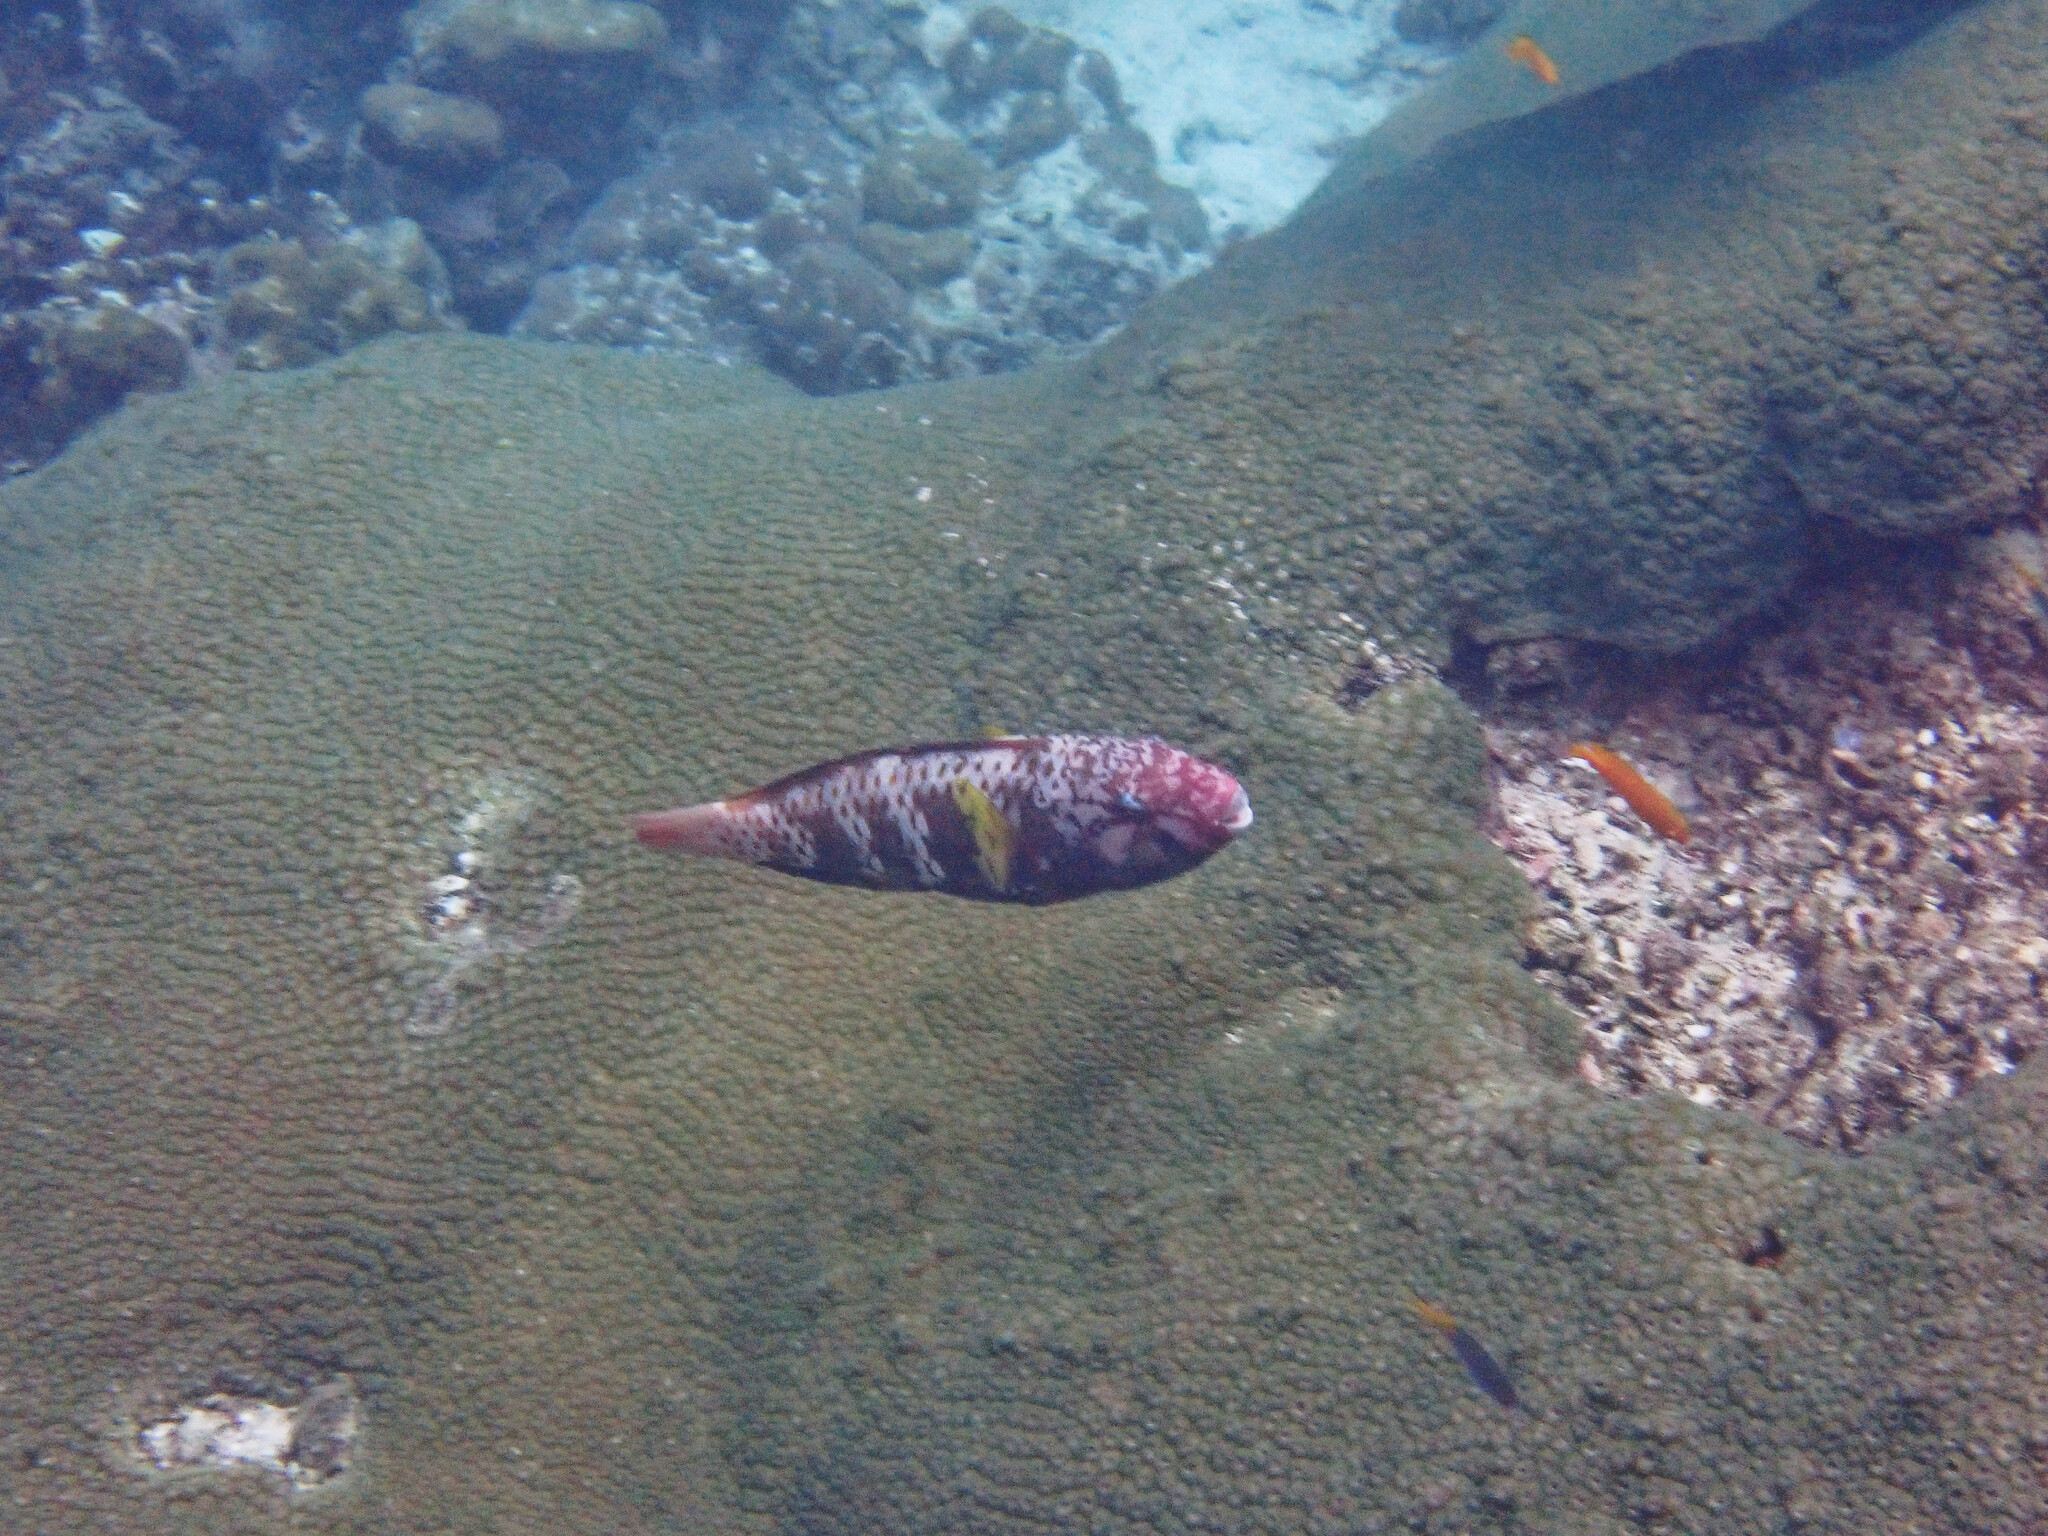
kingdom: Animalia
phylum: Chordata
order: Perciformes
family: Scaridae
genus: Chlorurus
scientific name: Chlorurus capistratoides
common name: Pink-margined parrotfish
